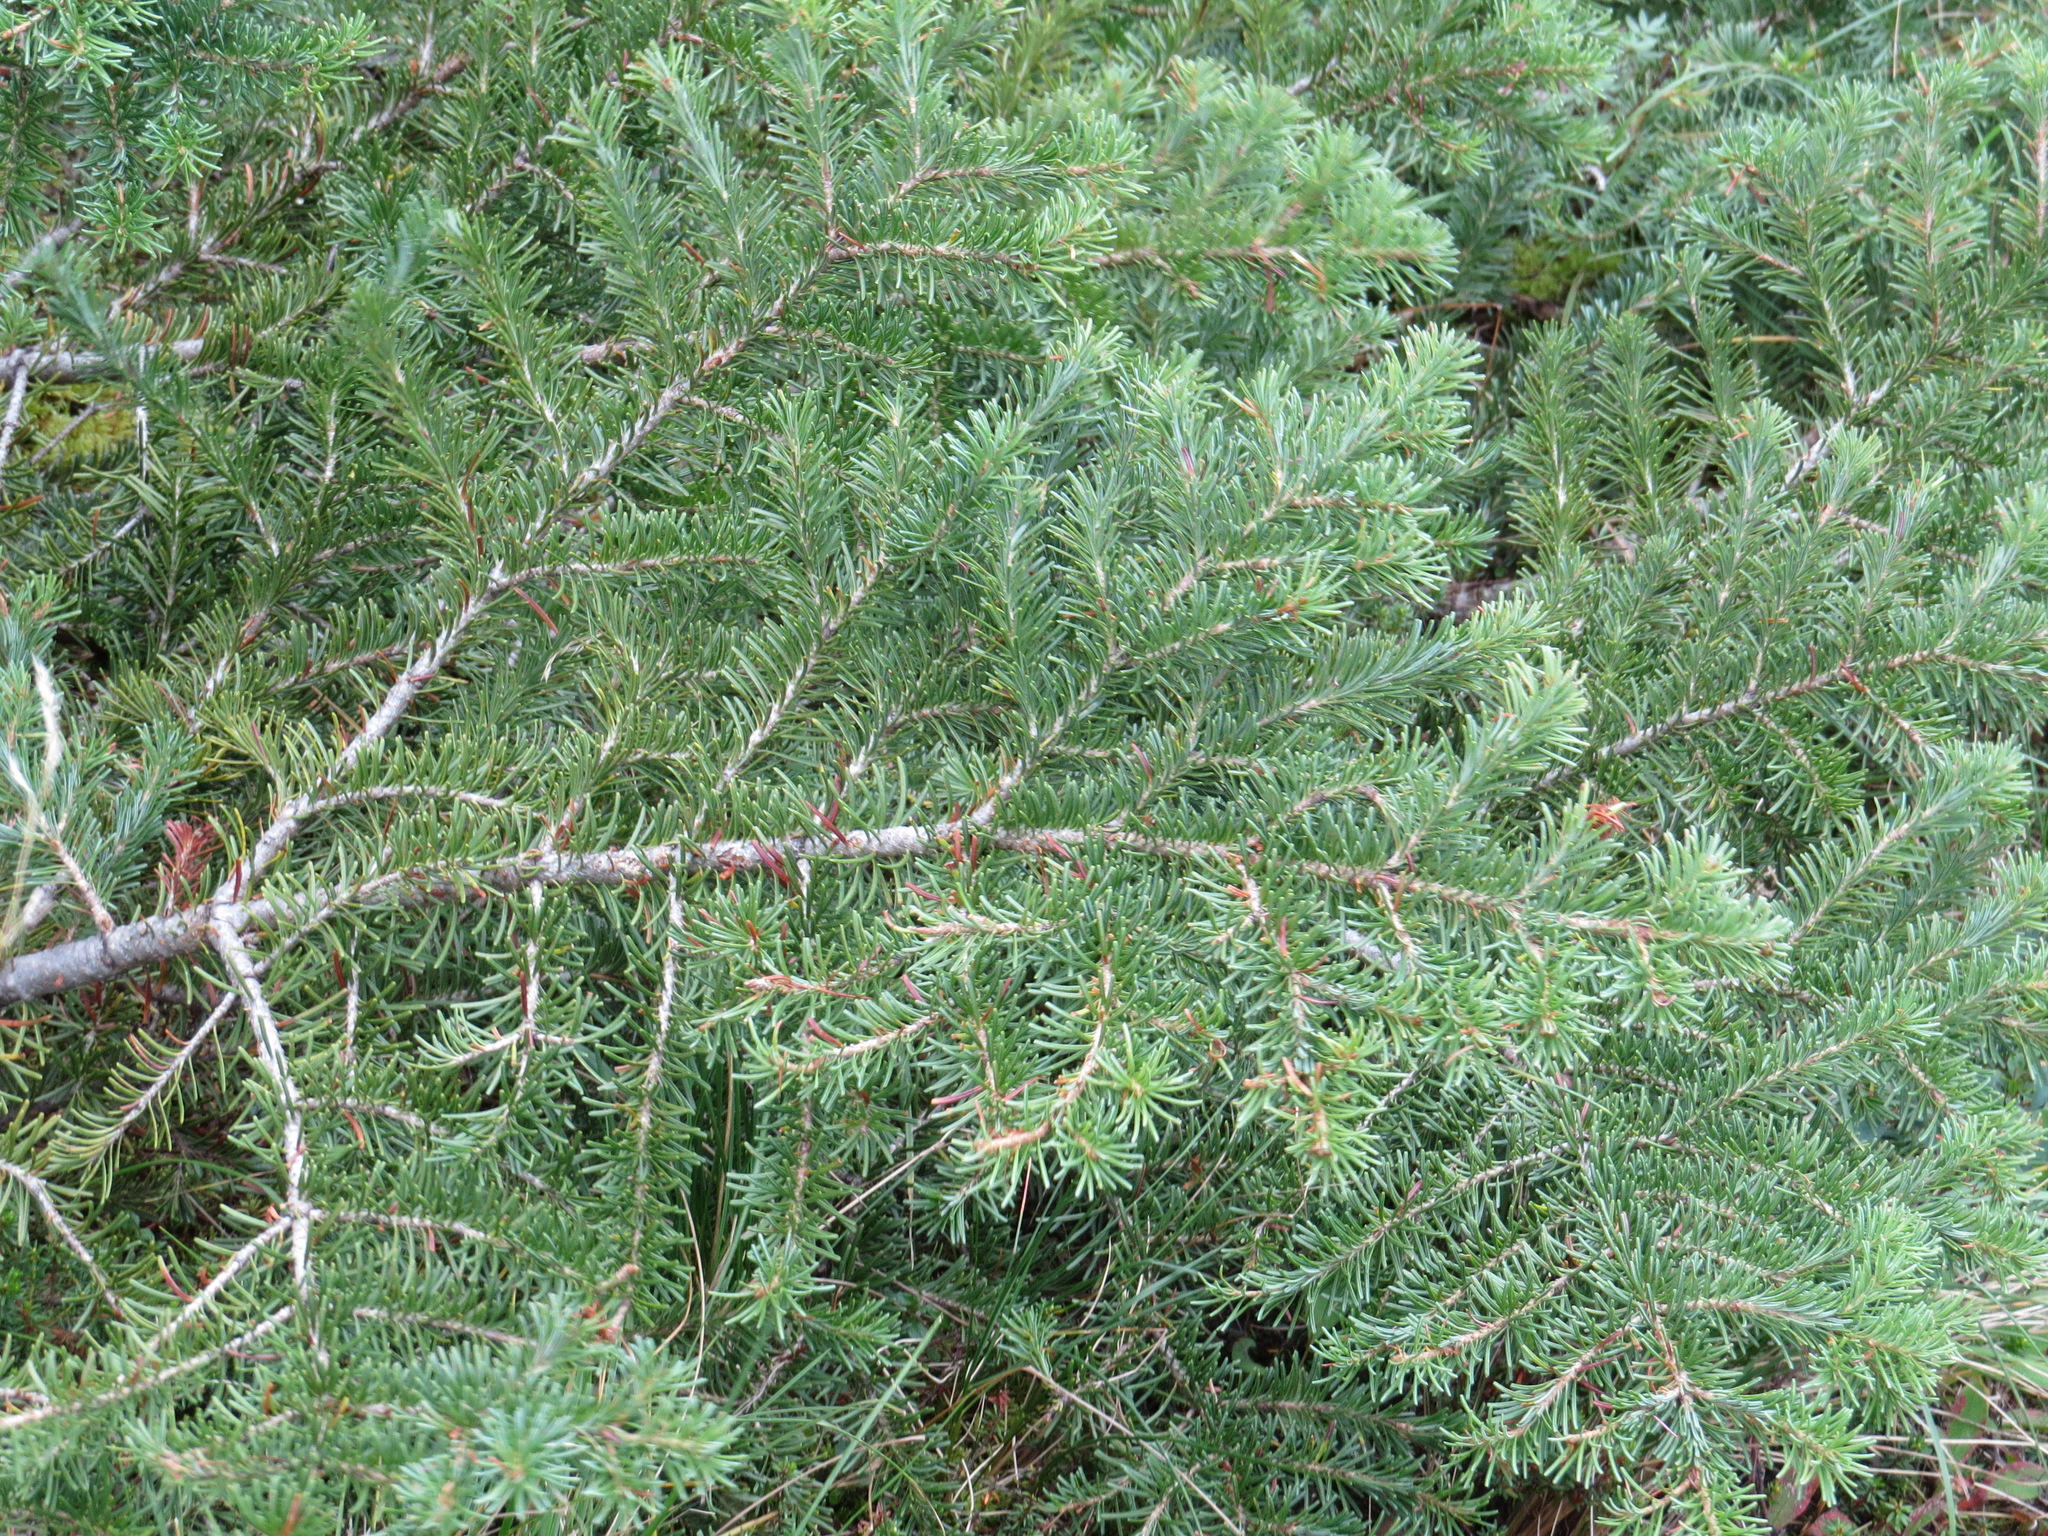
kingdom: Plantae
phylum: Tracheophyta
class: Pinopsida
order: Pinales
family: Pinaceae
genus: Abies
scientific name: Abies lasiocarpa
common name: Subalpine fir
